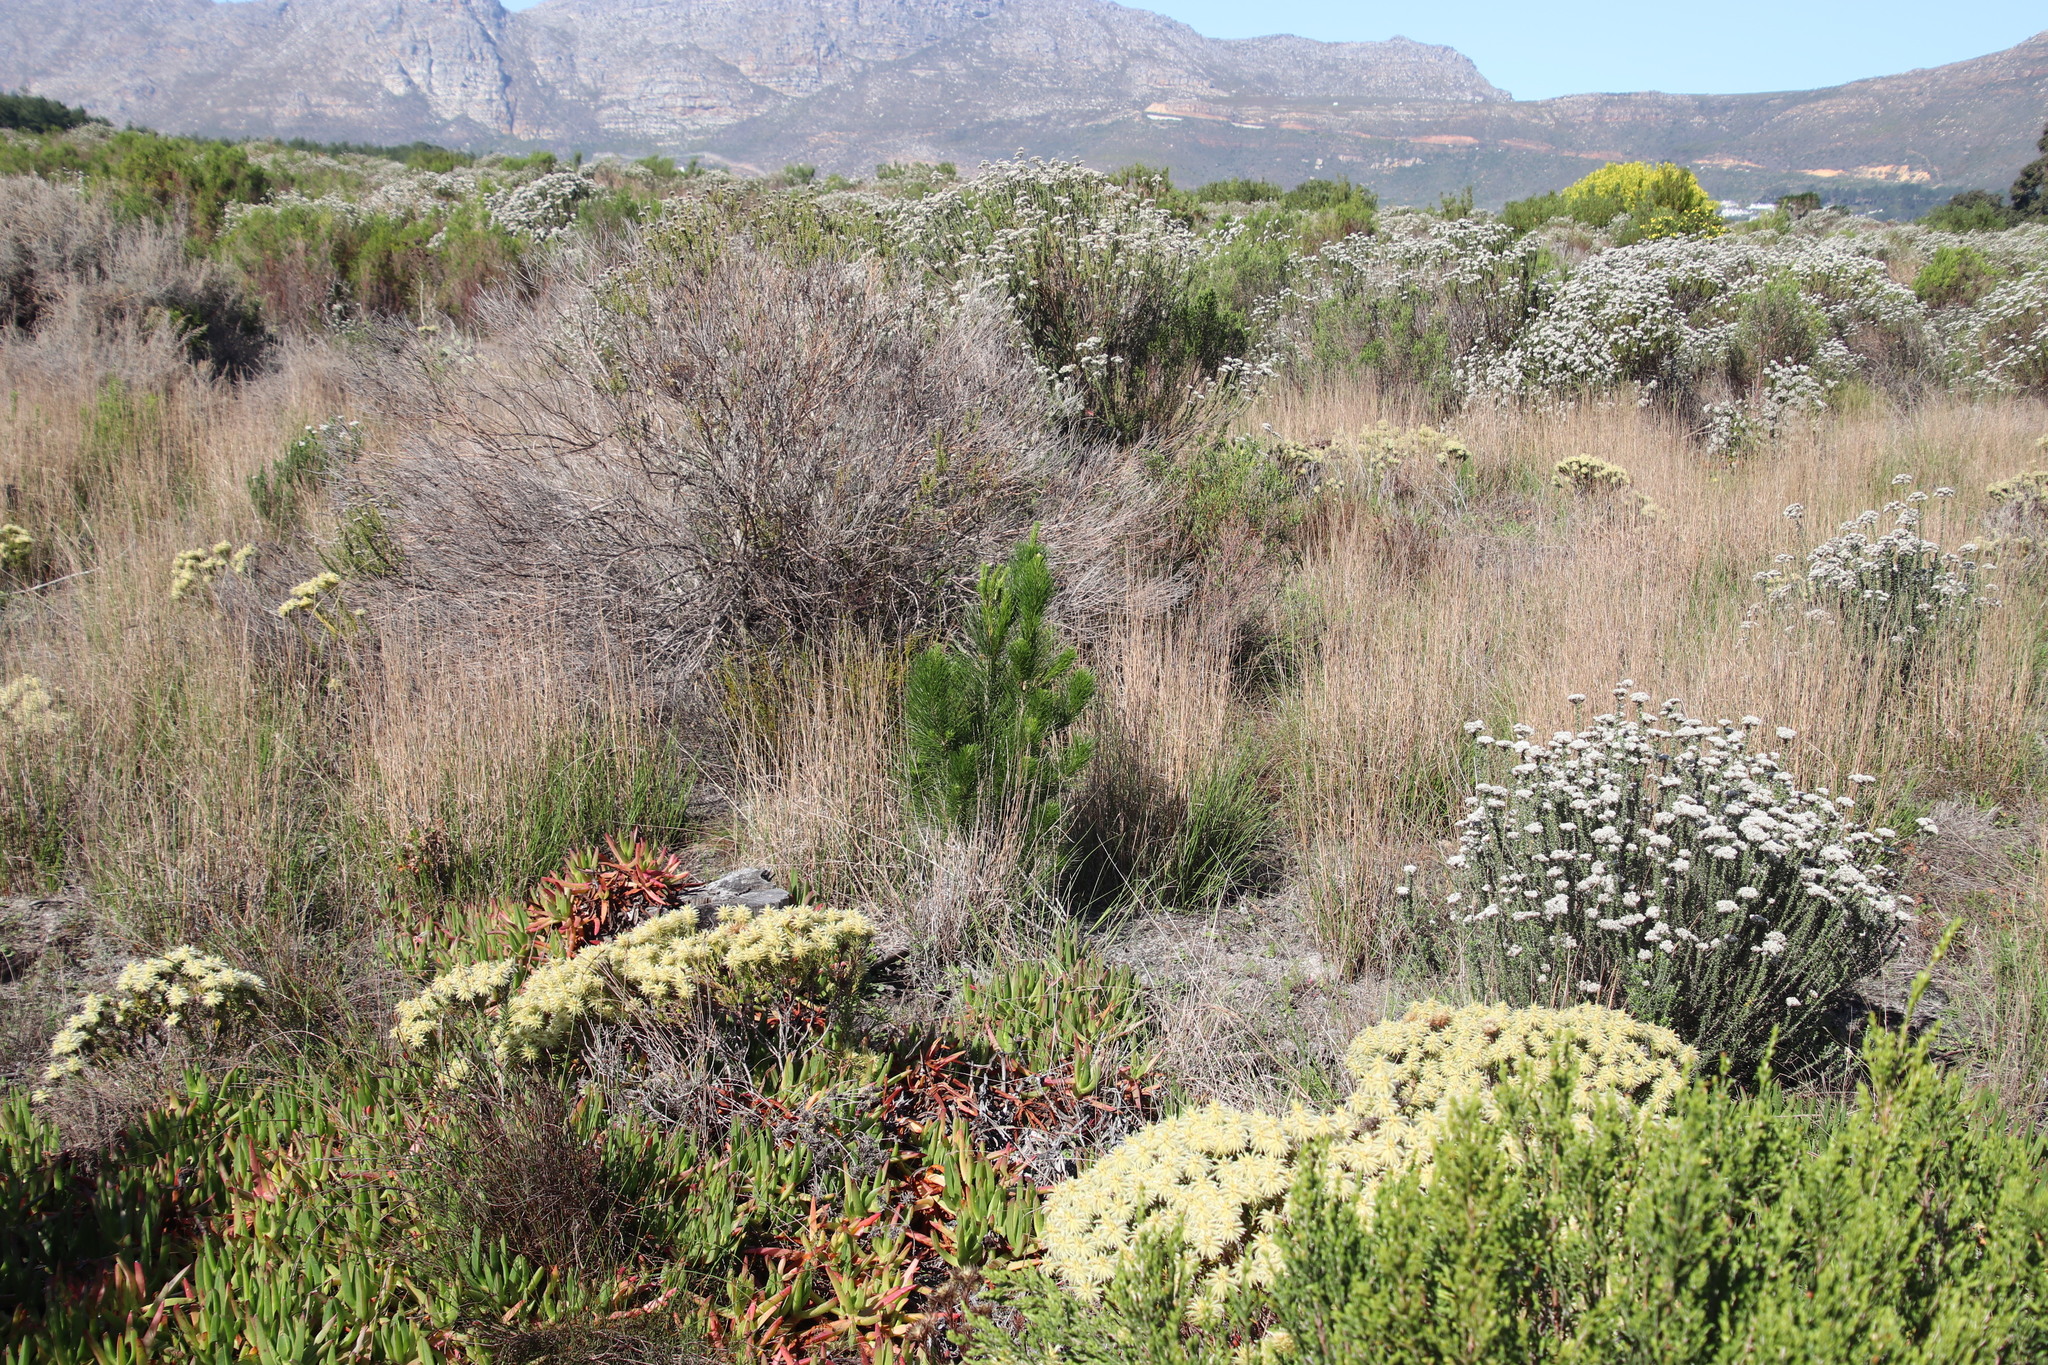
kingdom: Plantae
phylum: Tracheophyta
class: Pinopsida
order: Pinales
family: Pinaceae
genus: Pinus
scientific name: Pinus radiata
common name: Monterey pine
